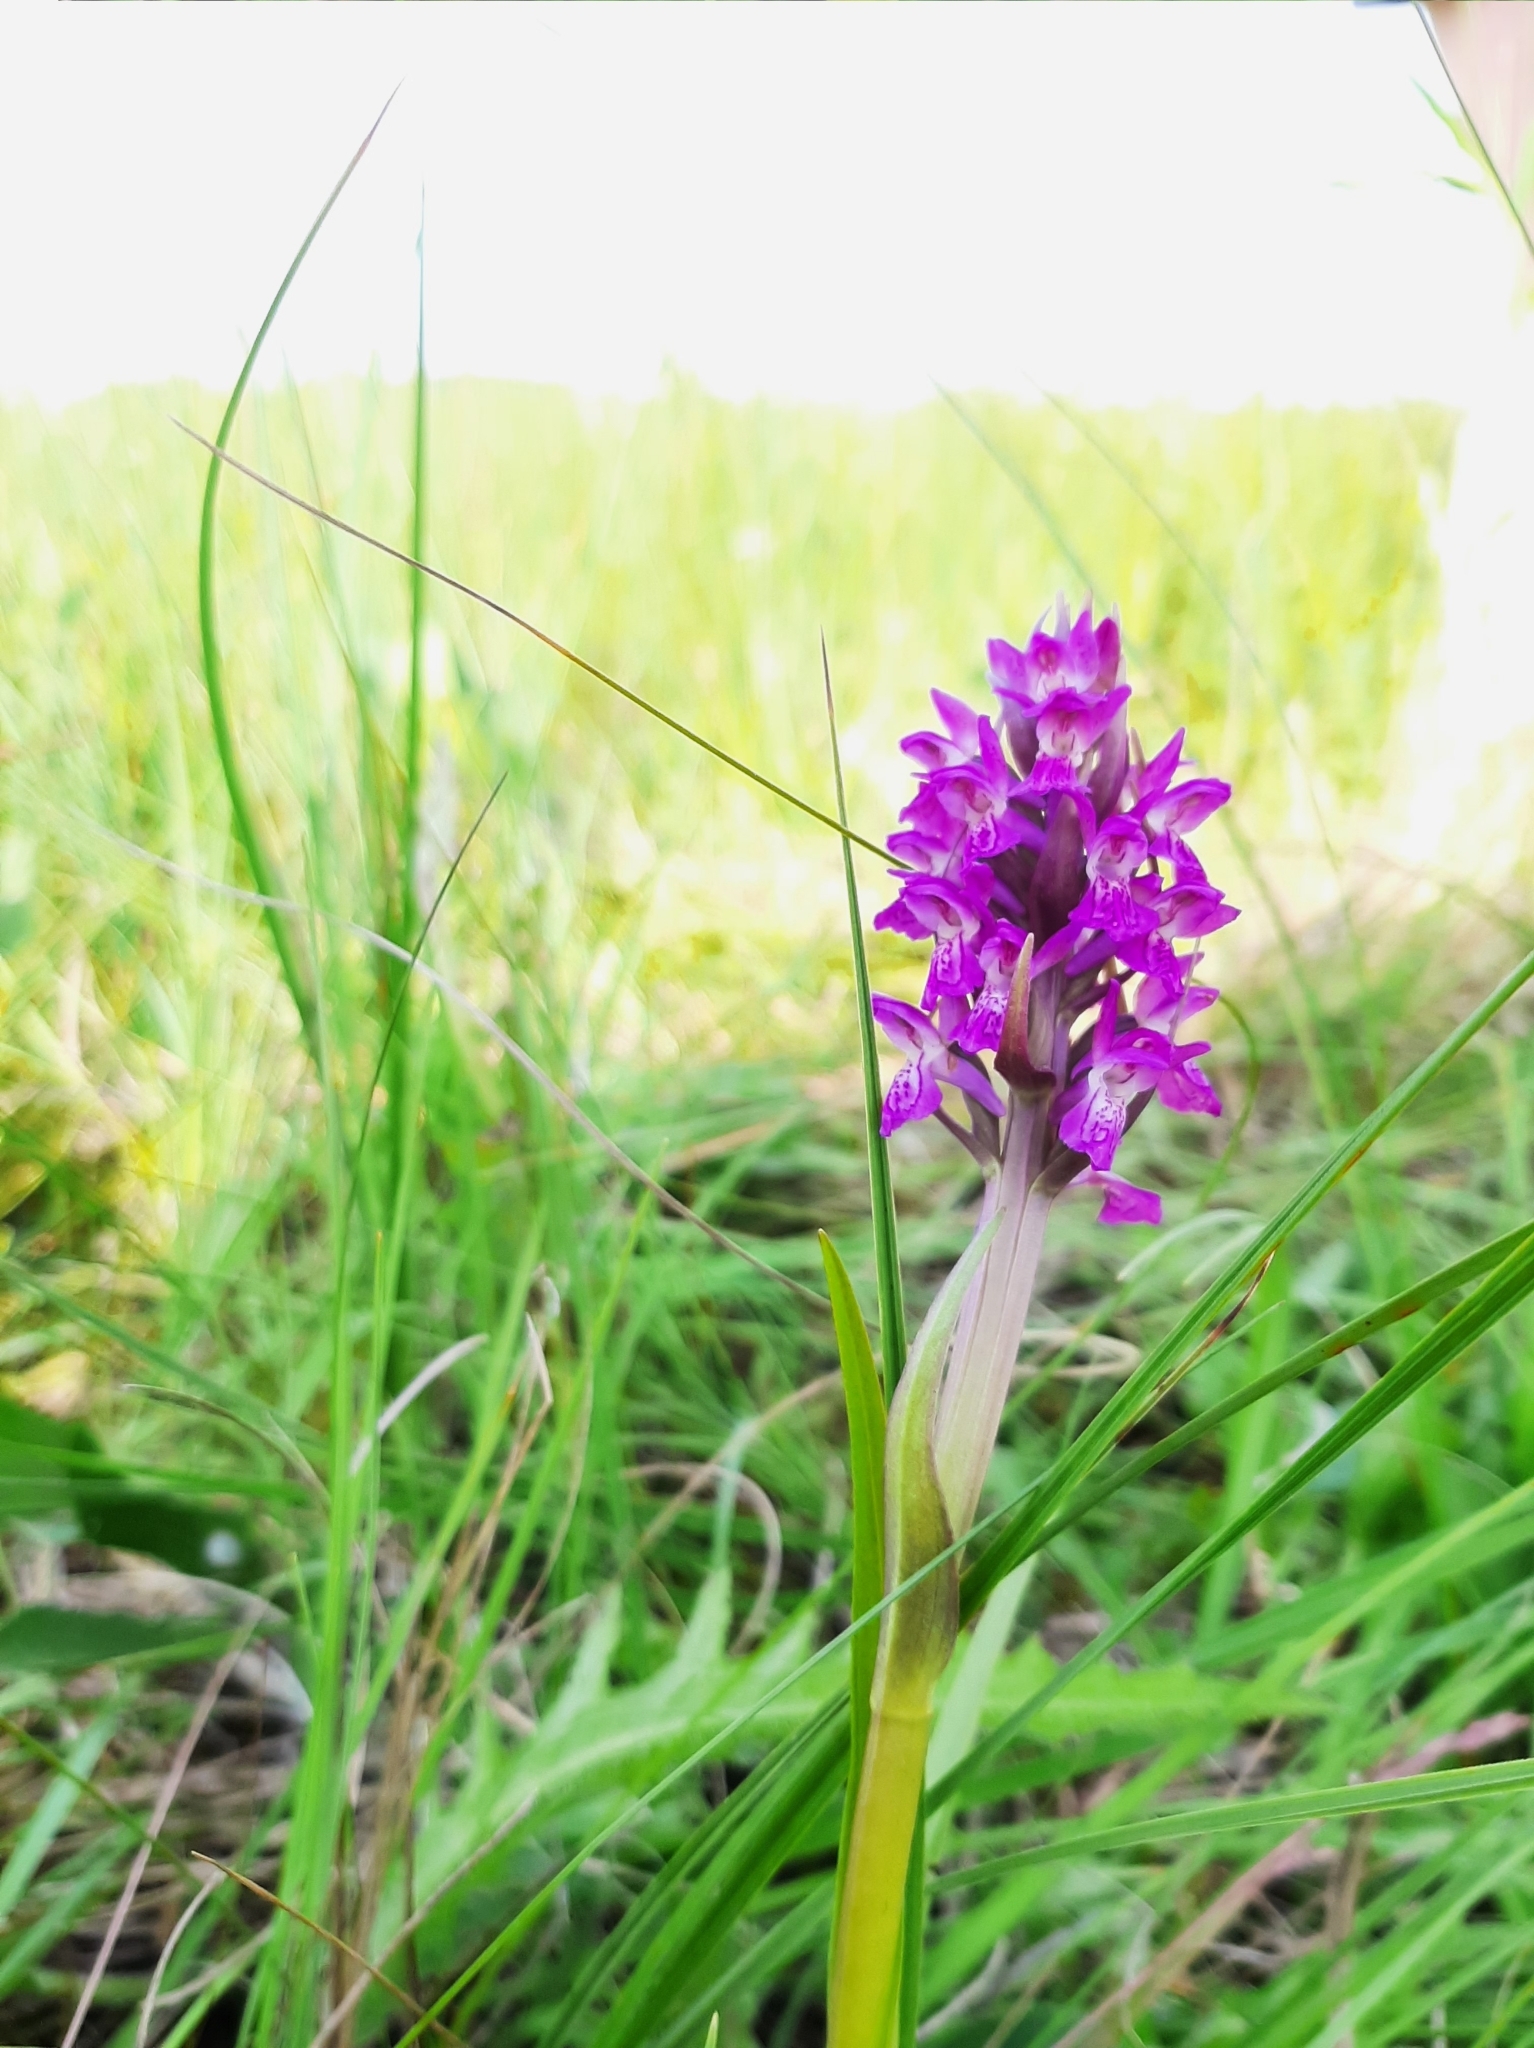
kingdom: Plantae
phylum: Tracheophyta
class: Liliopsida
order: Asparagales
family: Orchidaceae
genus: Dactylorhiza
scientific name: Dactylorhiza incarnata
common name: Early marsh-orchid
